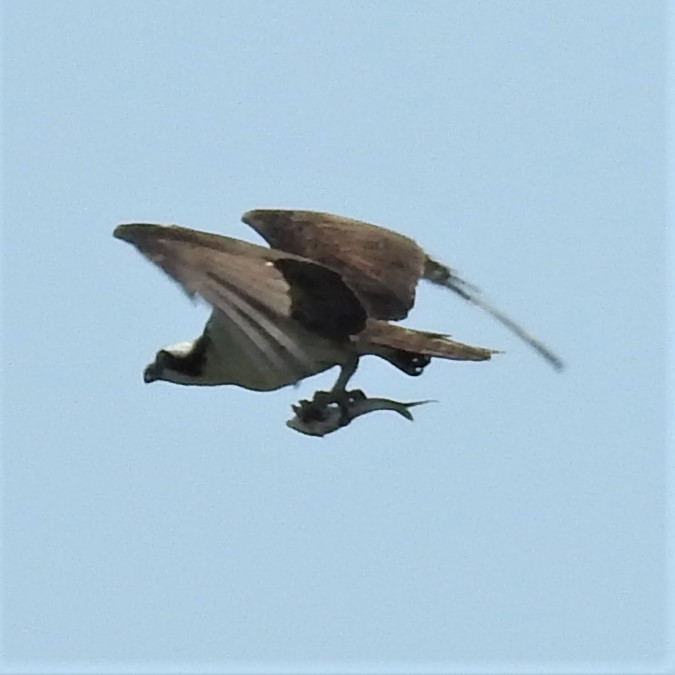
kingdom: Animalia
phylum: Chordata
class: Aves
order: Accipitriformes
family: Pandionidae
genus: Pandion
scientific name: Pandion haliaetus
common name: Osprey
